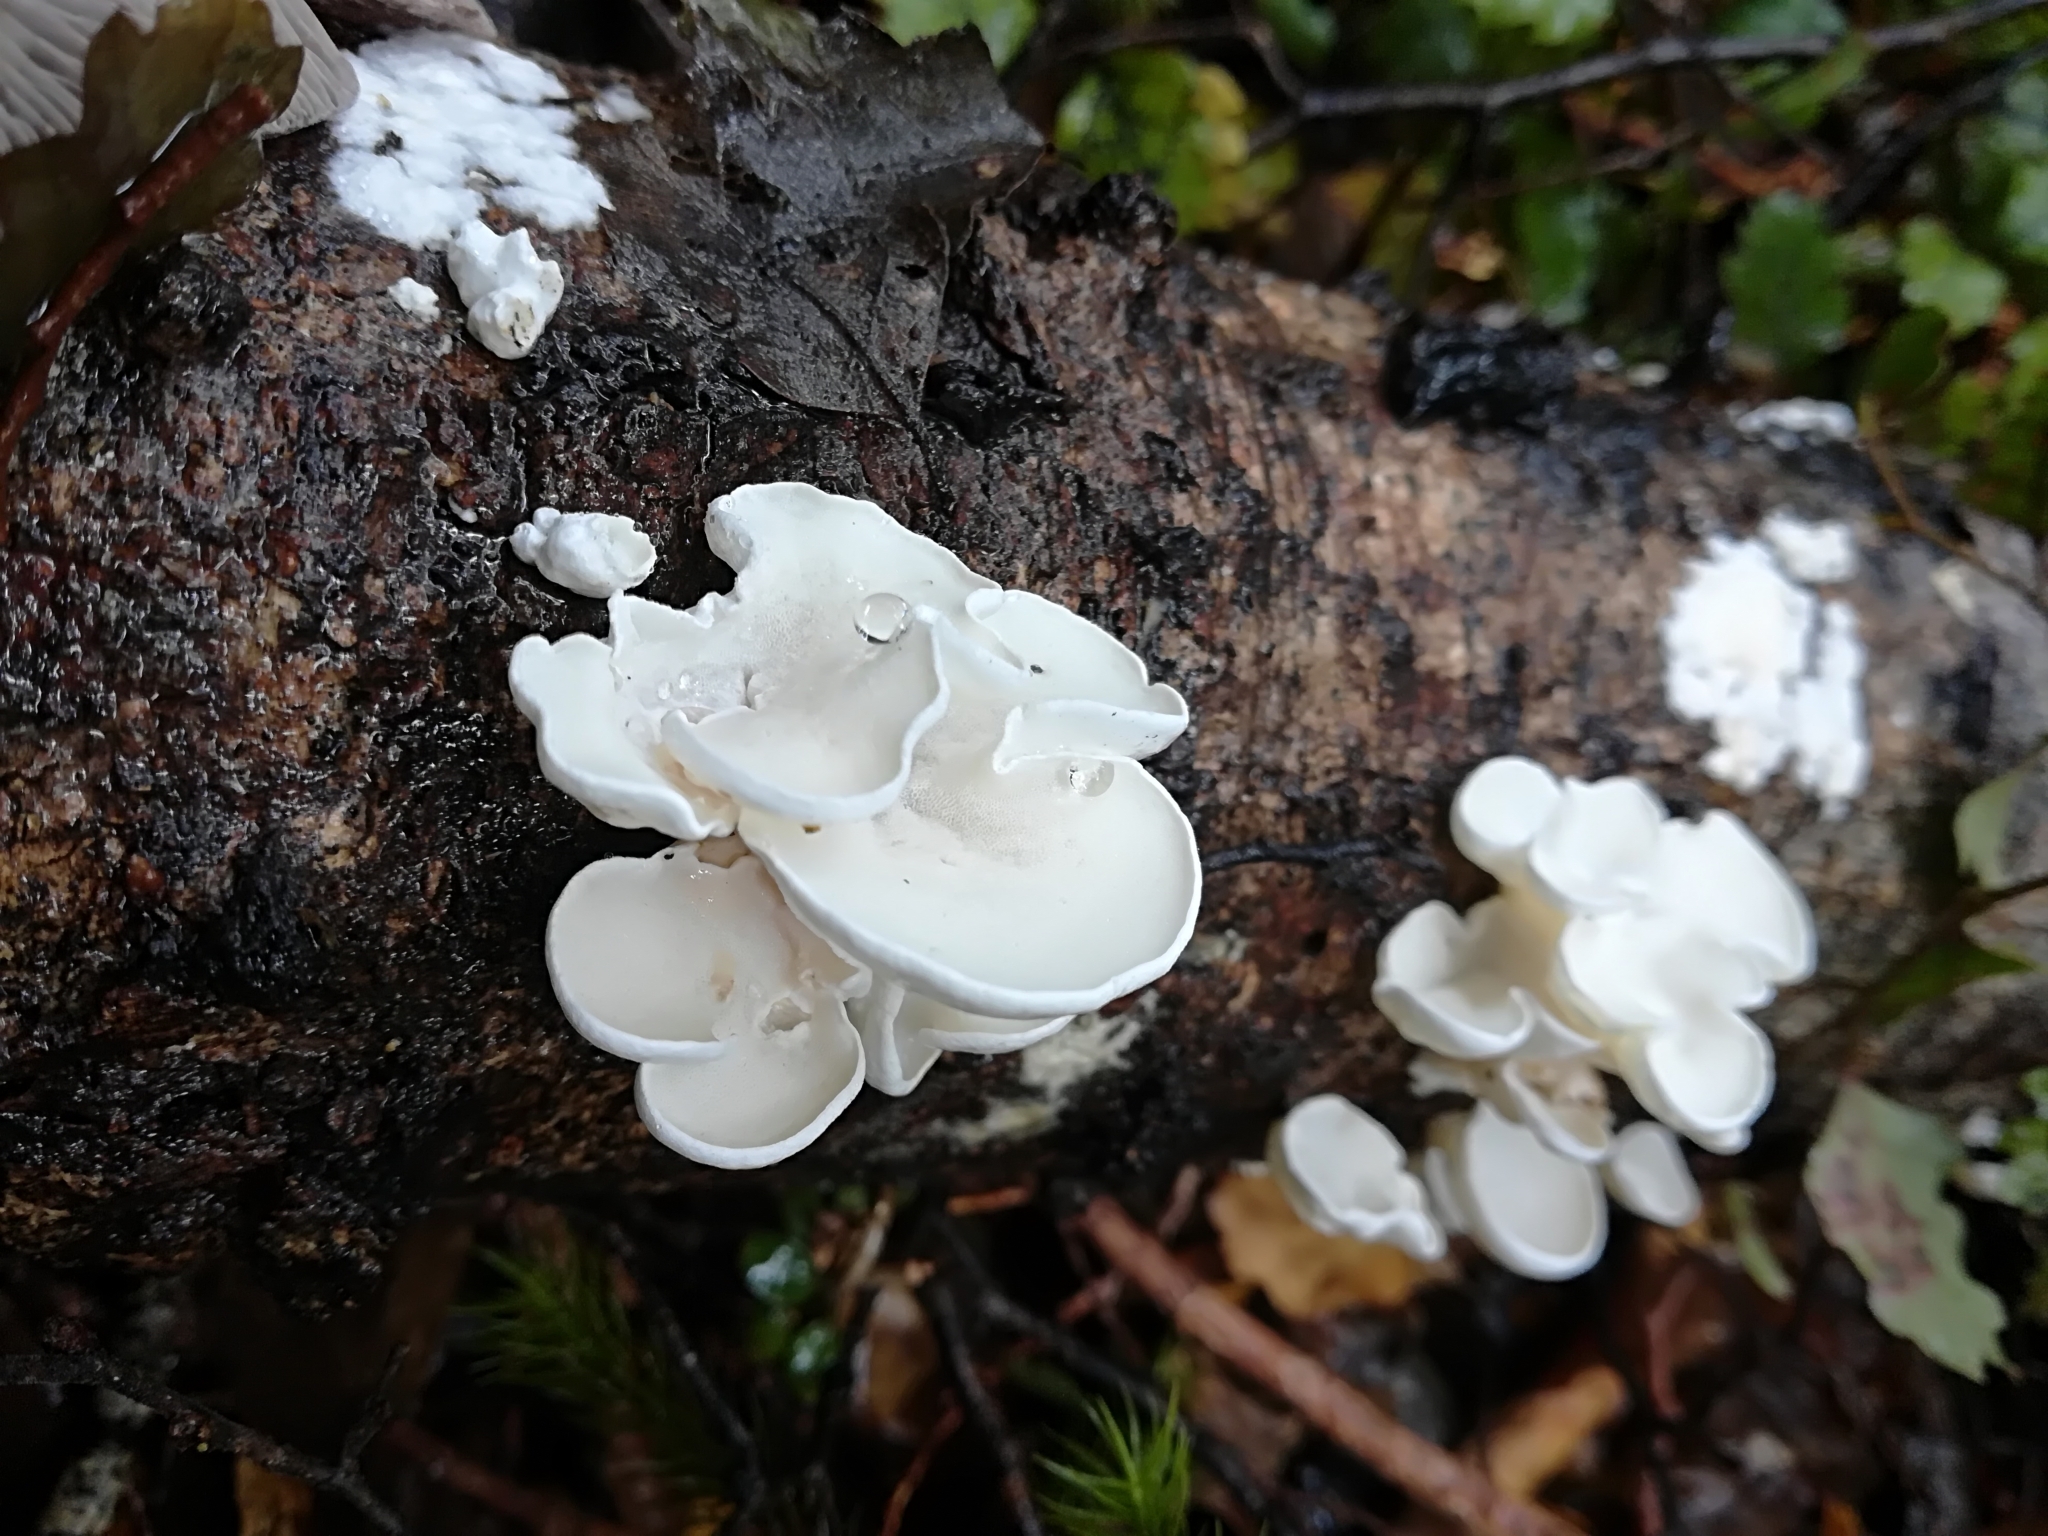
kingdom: Fungi
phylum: Basidiomycota
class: Agaricomycetes
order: Polyporales
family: Irpicaceae
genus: Gloeoporus
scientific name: Gloeoporus phlebophorus
